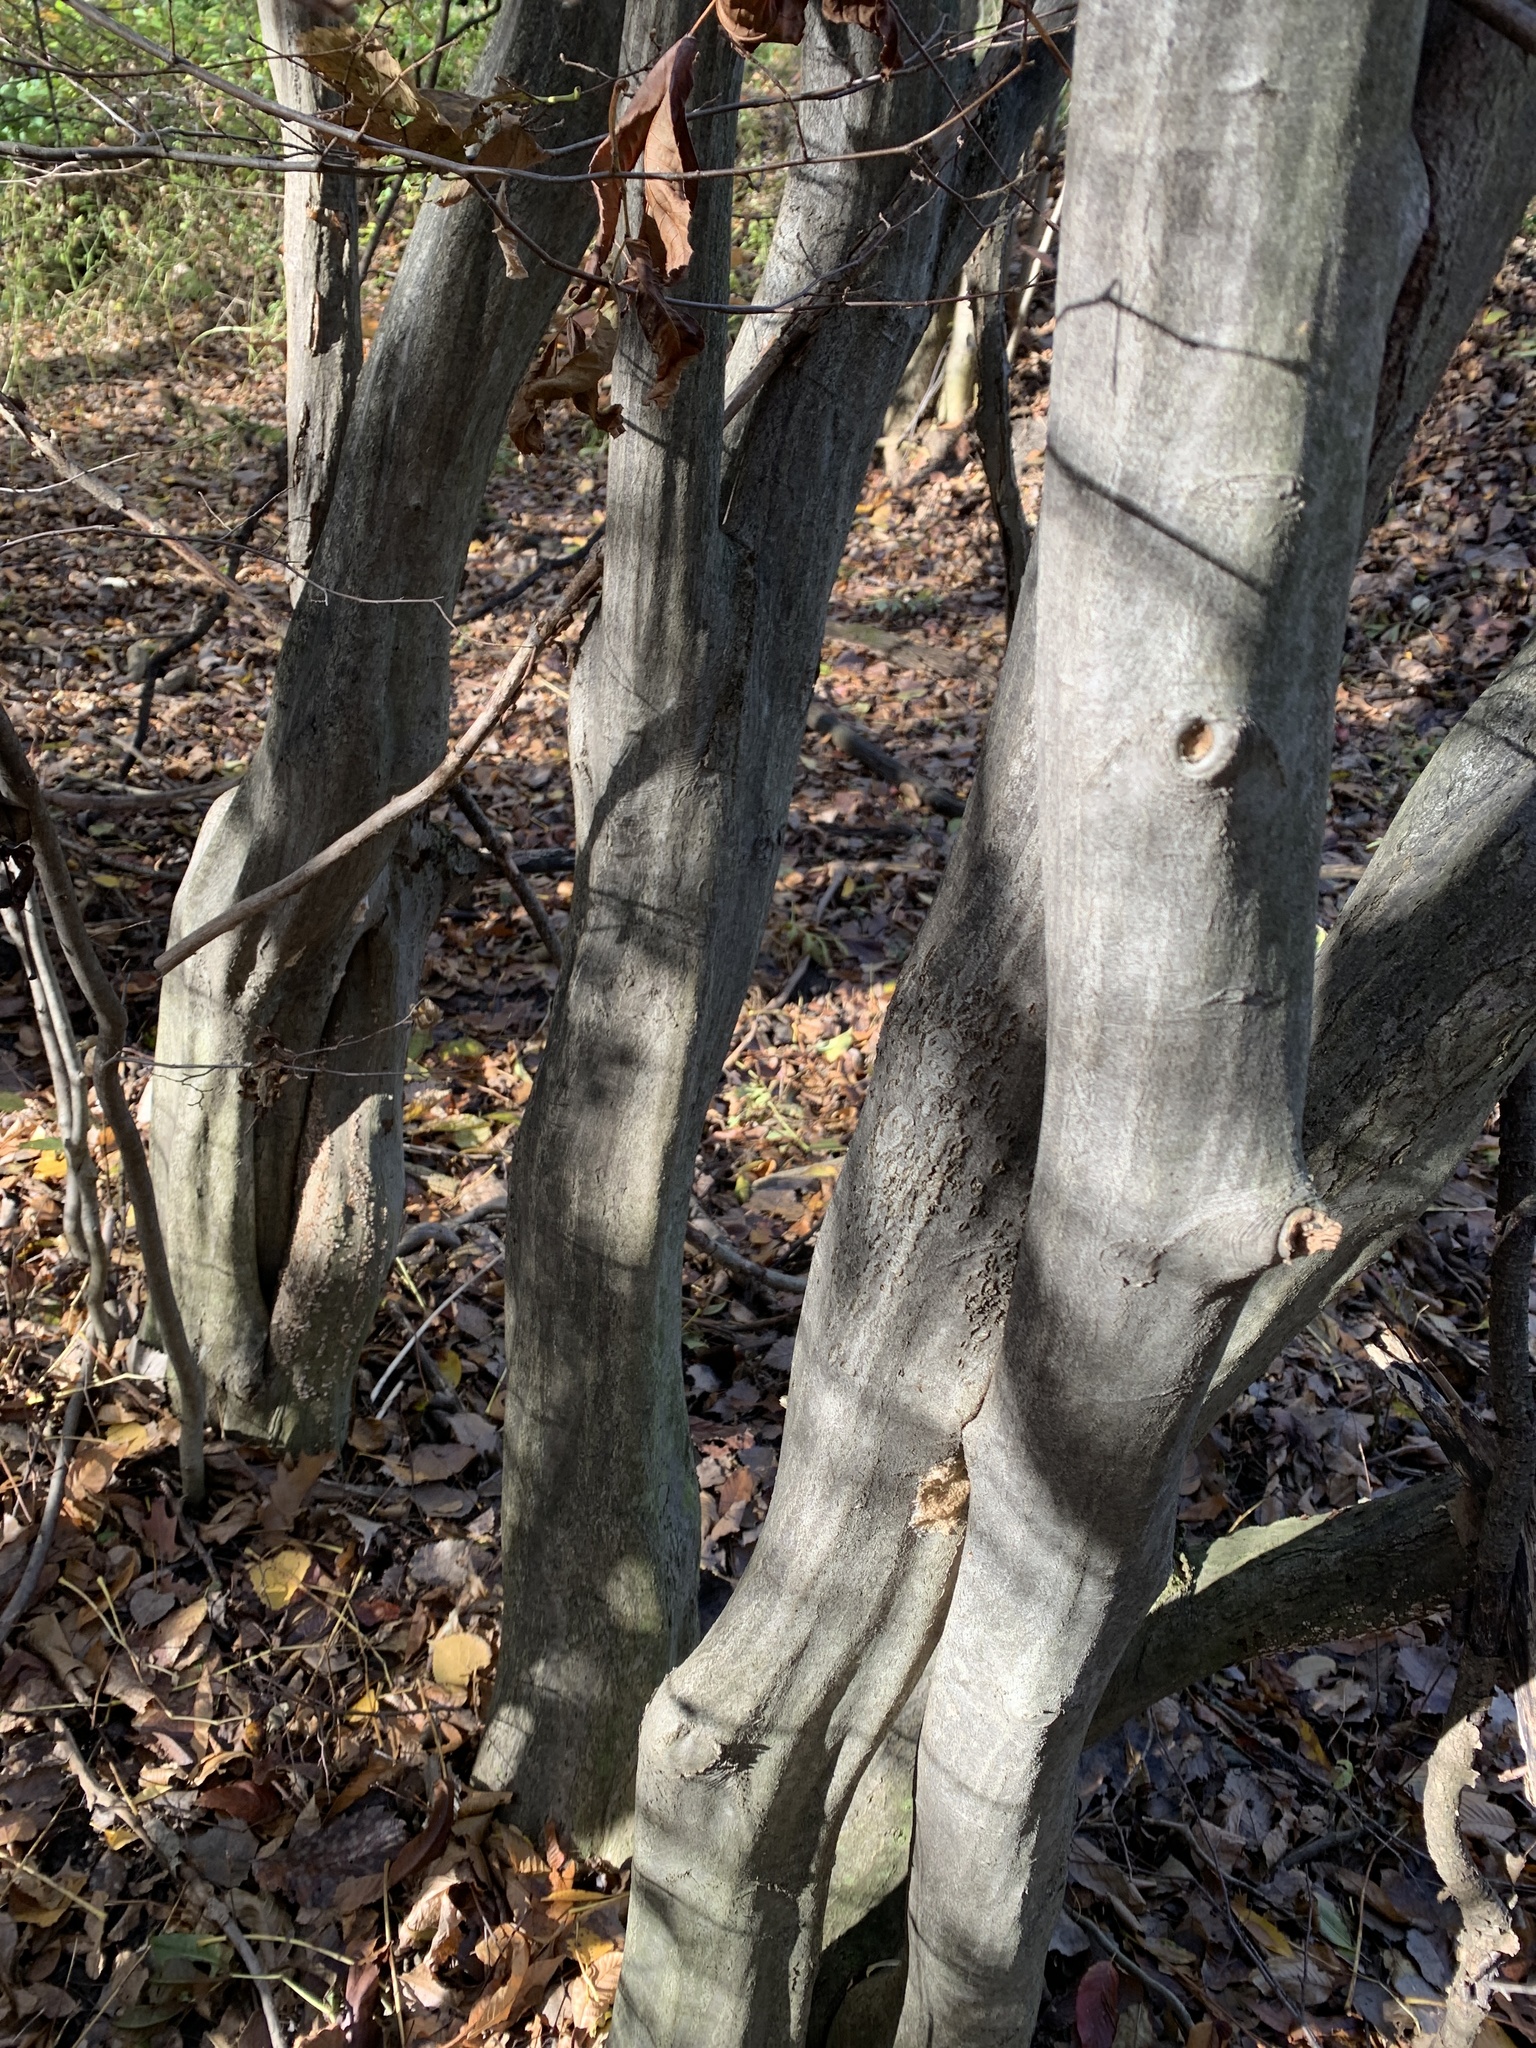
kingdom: Plantae
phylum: Tracheophyta
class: Magnoliopsida
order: Fagales
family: Betulaceae
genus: Carpinus
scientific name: Carpinus caroliniana
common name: American hornbeam
